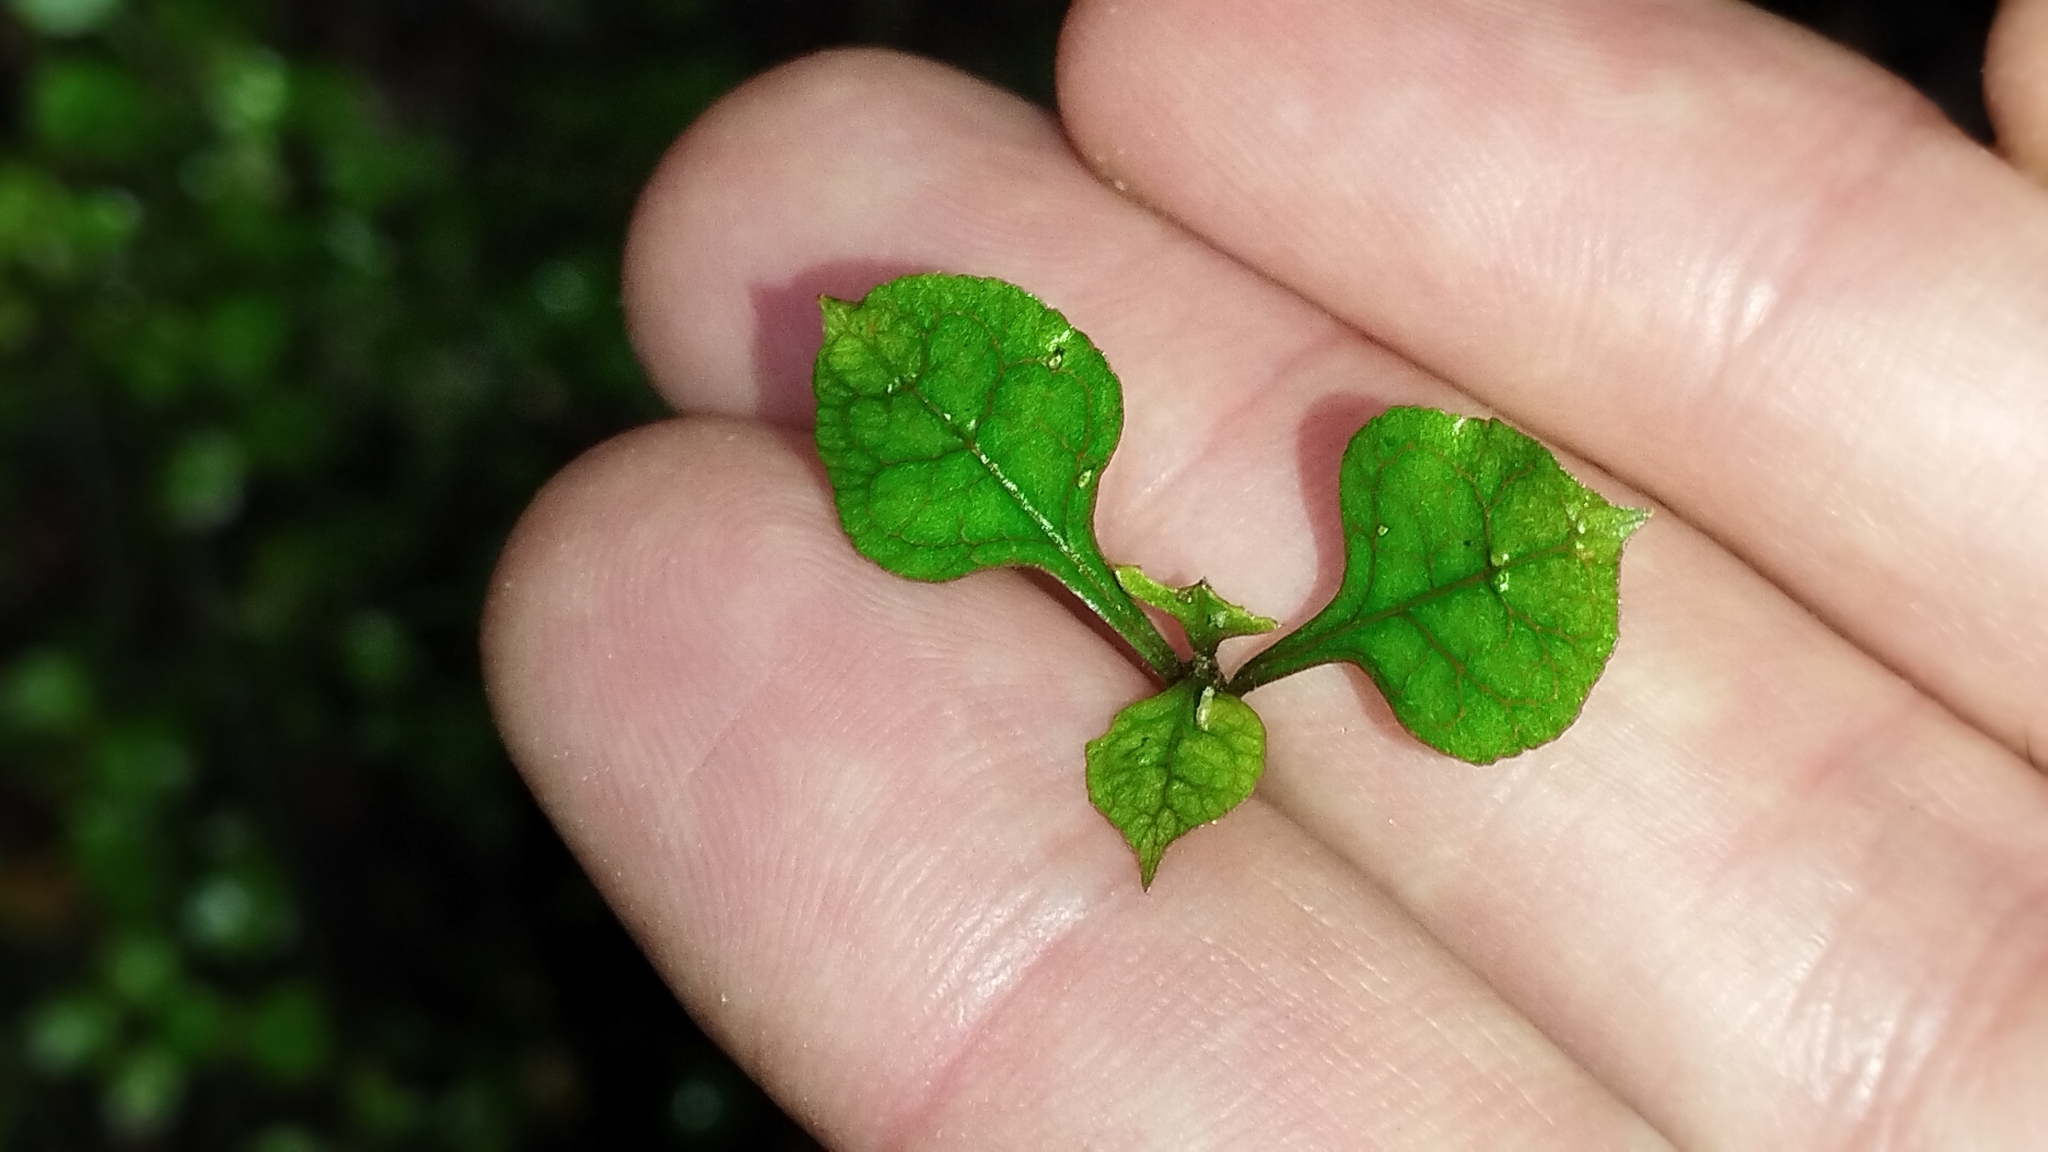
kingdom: Plantae
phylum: Tracheophyta
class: Magnoliopsida
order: Gentianales
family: Rubiaceae
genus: Coprosma
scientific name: Coprosma areolata
